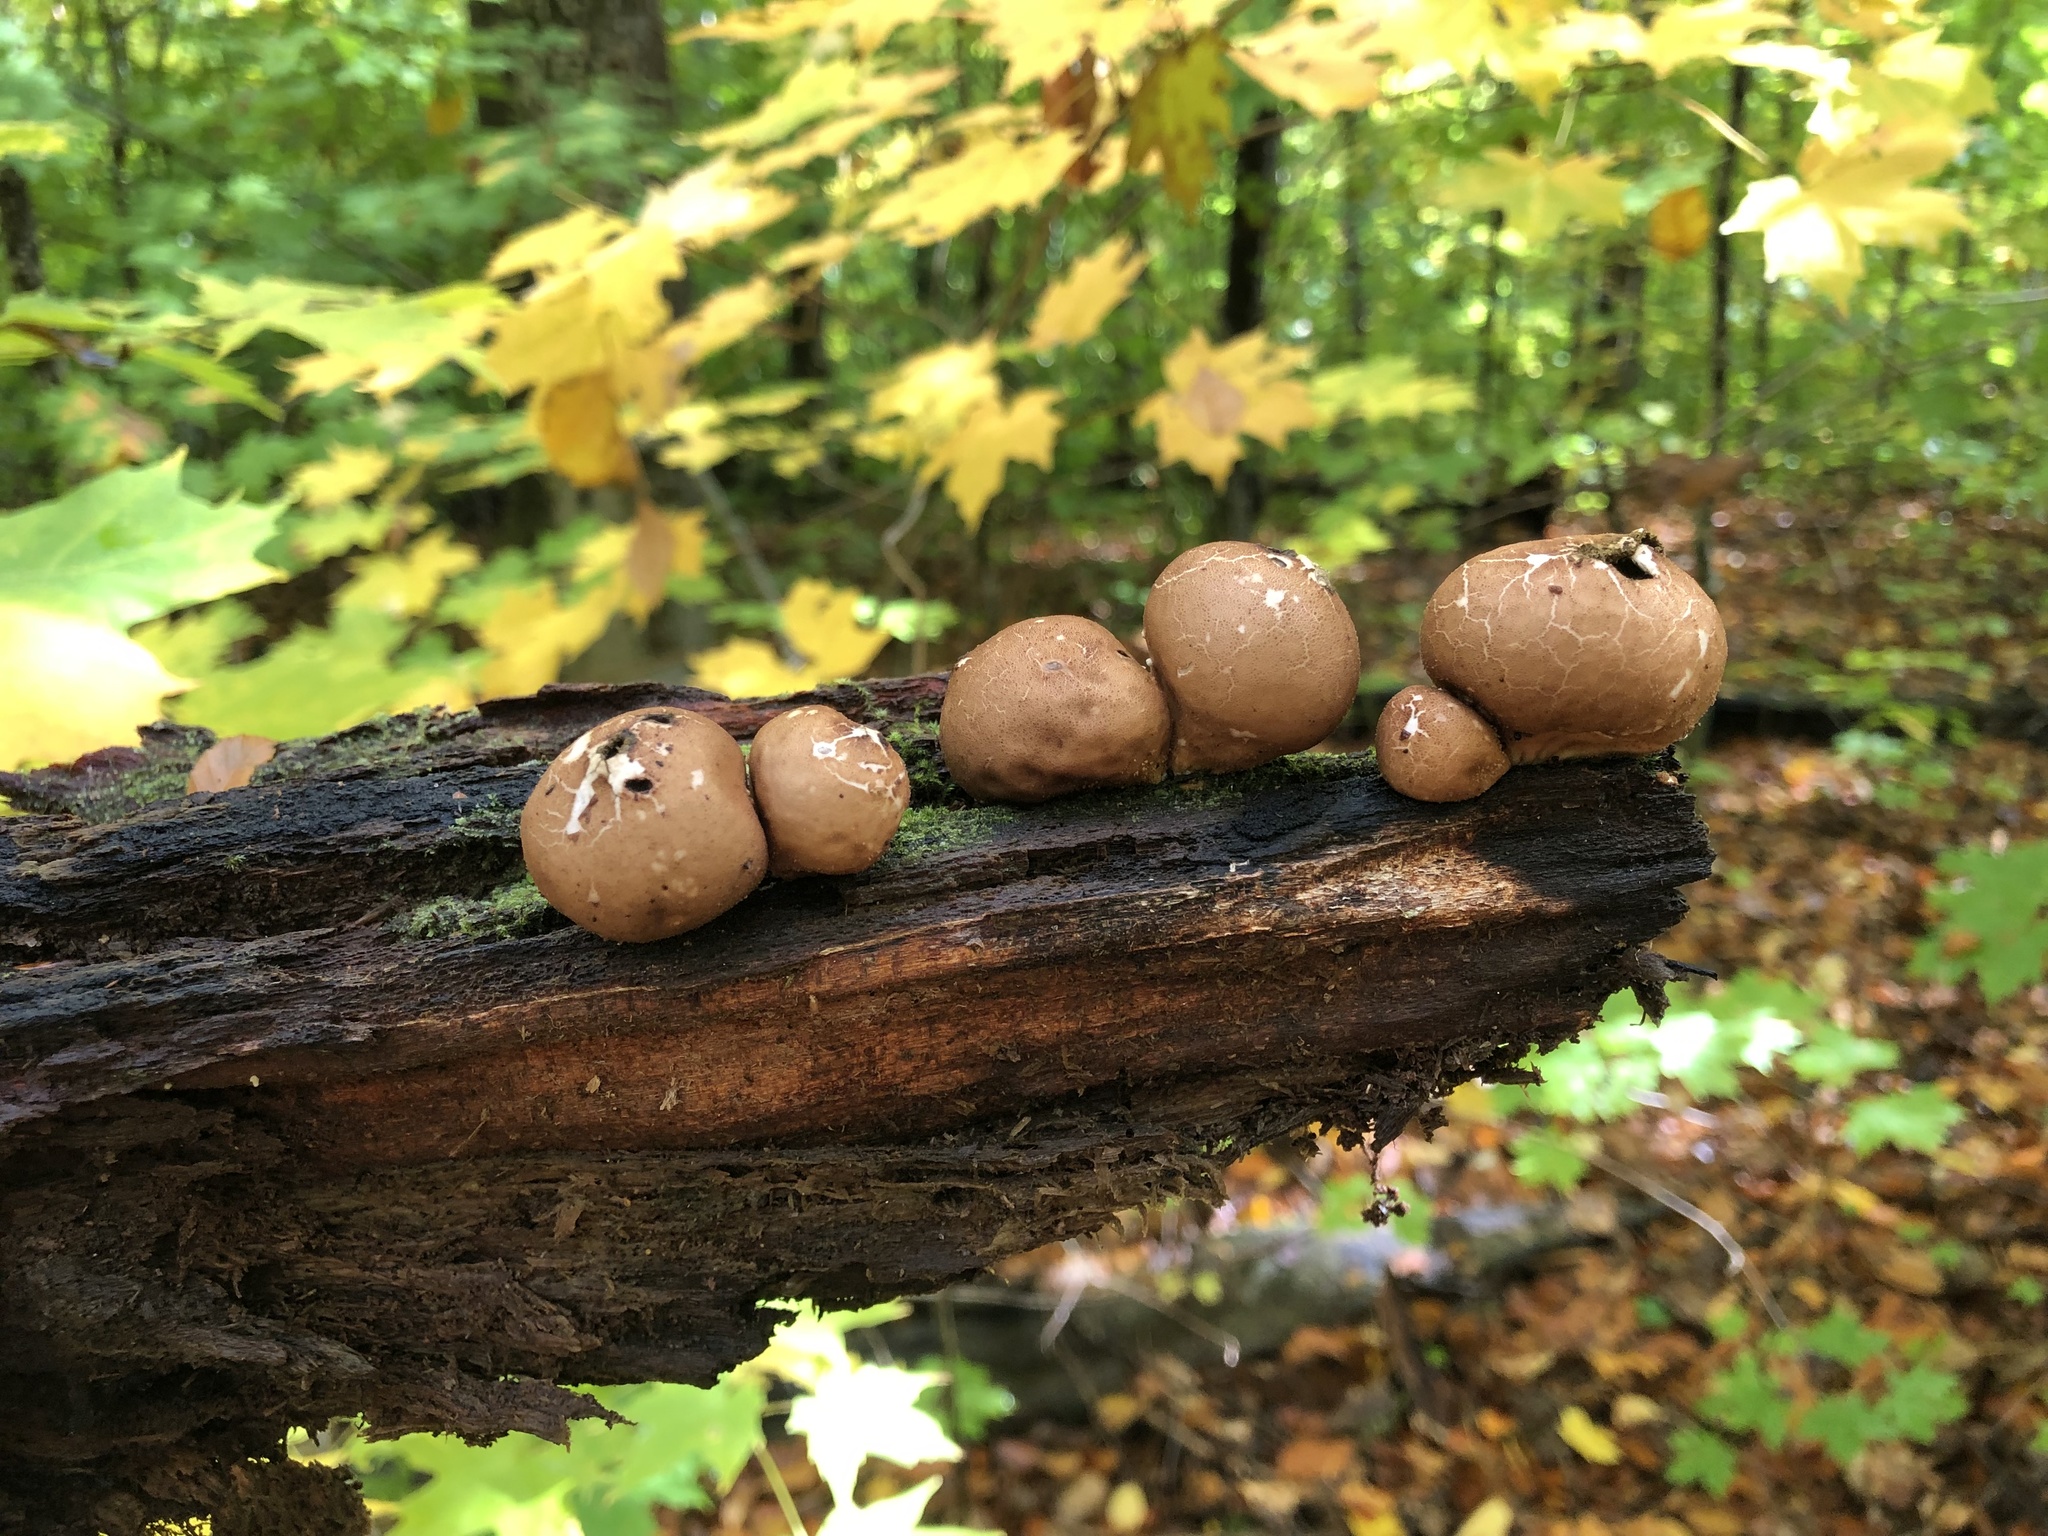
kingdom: Fungi
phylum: Basidiomycota
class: Agaricomycetes
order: Agaricales
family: Lycoperdaceae
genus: Apioperdon
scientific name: Apioperdon pyriforme
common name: Pear-shaped puffball
